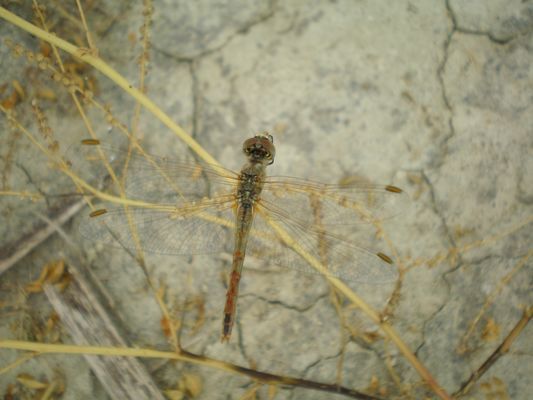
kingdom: Animalia
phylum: Arthropoda
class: Insecta
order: Odonata
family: Libellulidae
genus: Sympetrum
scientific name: Sympetrum fonscolombii
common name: Red-veined darter
